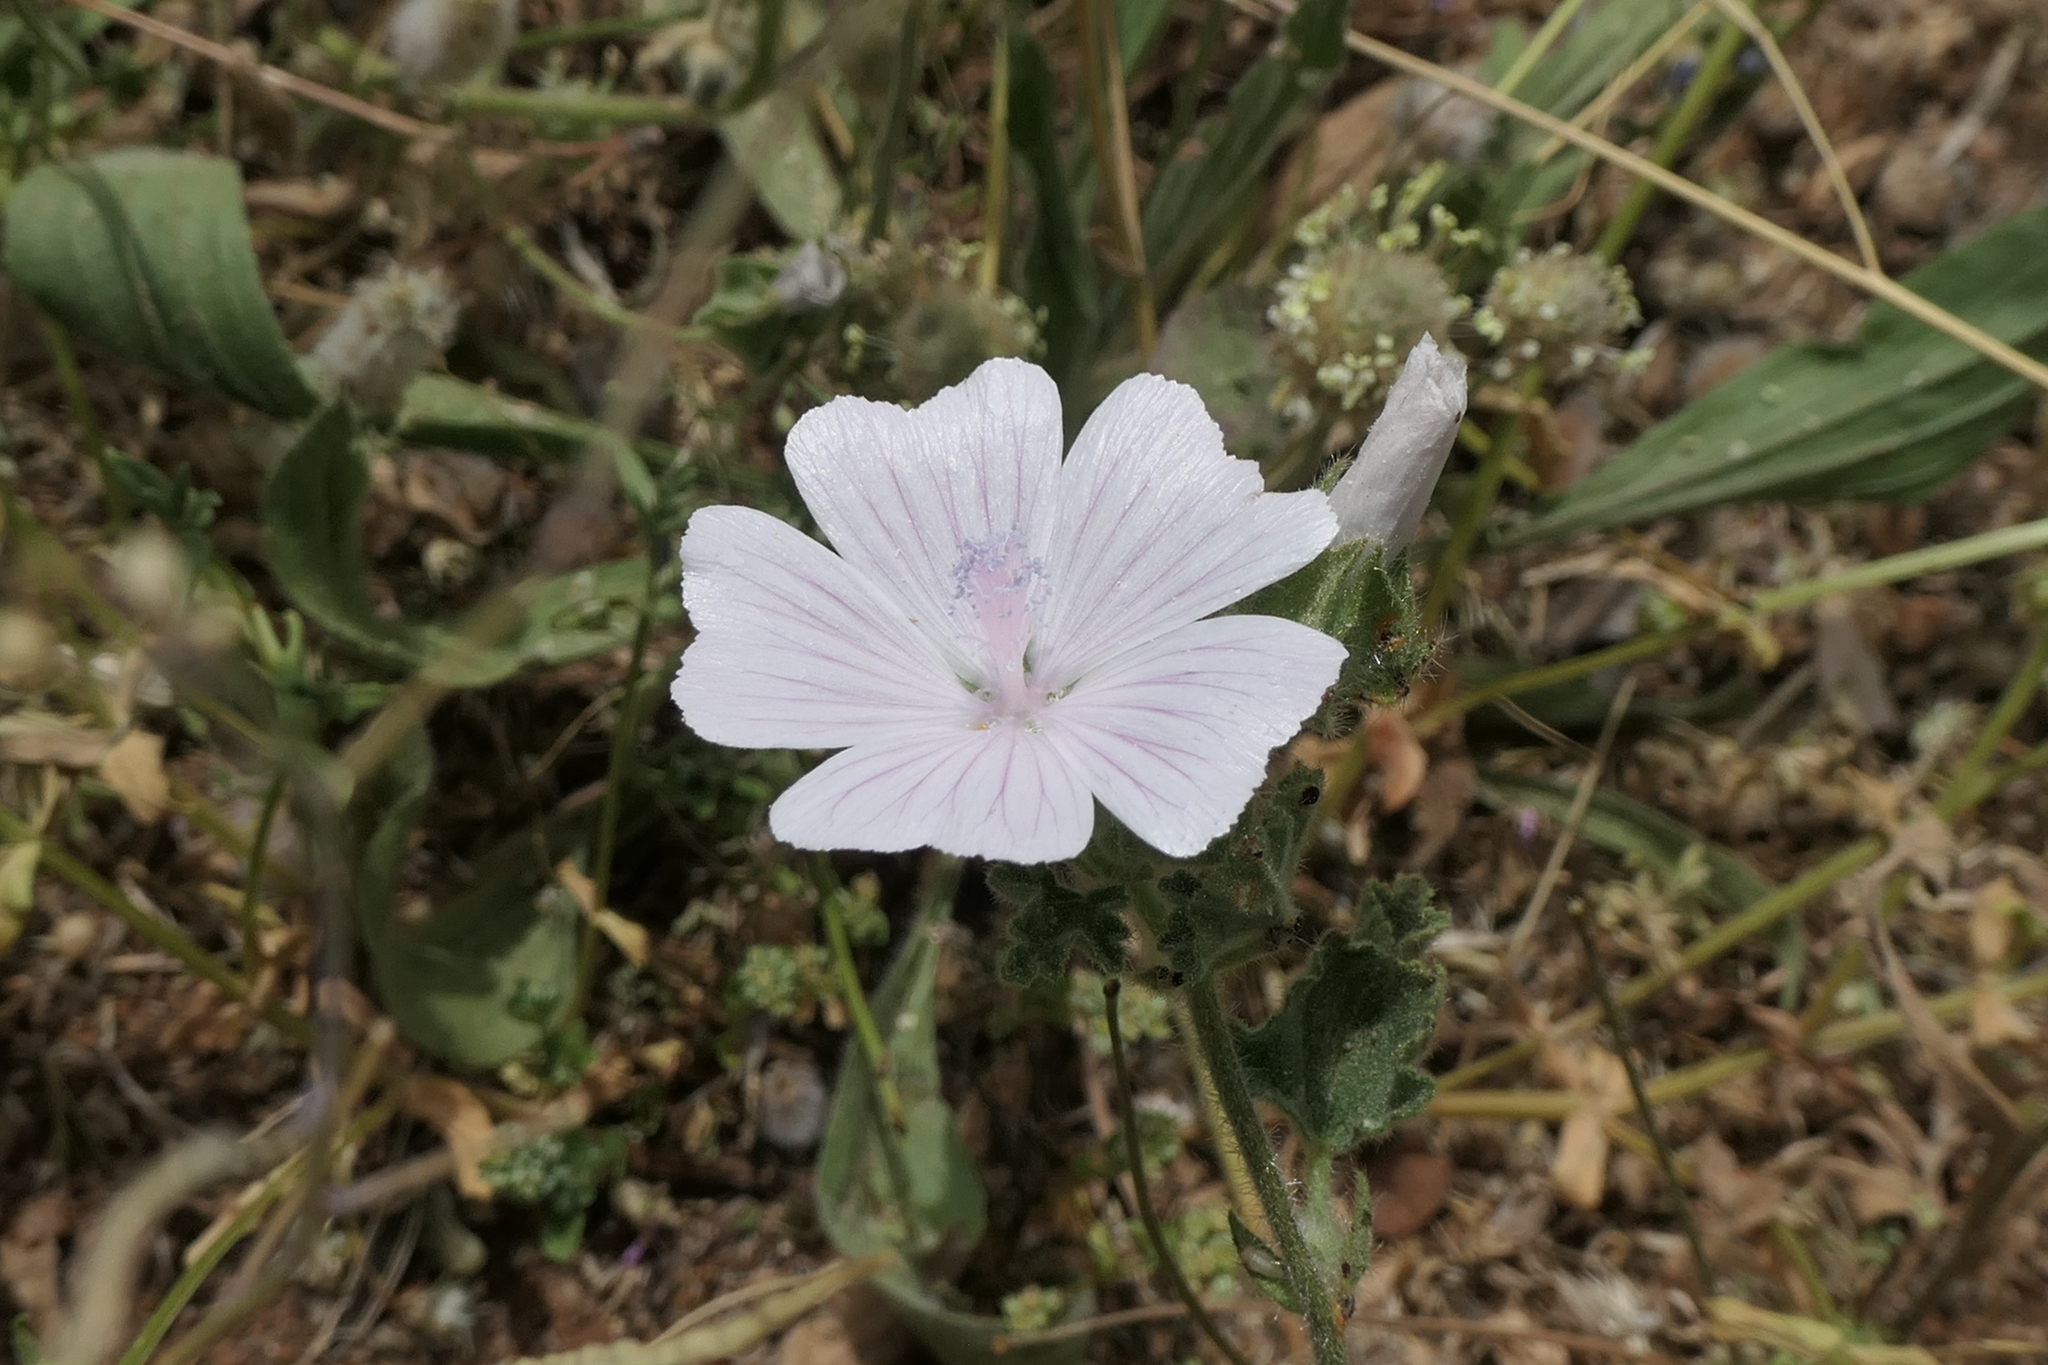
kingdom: Plantae
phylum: Tracheophyta
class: Magnoliopsida
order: Malvales
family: Malvaceae
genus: Malva
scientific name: Malva hispanica
